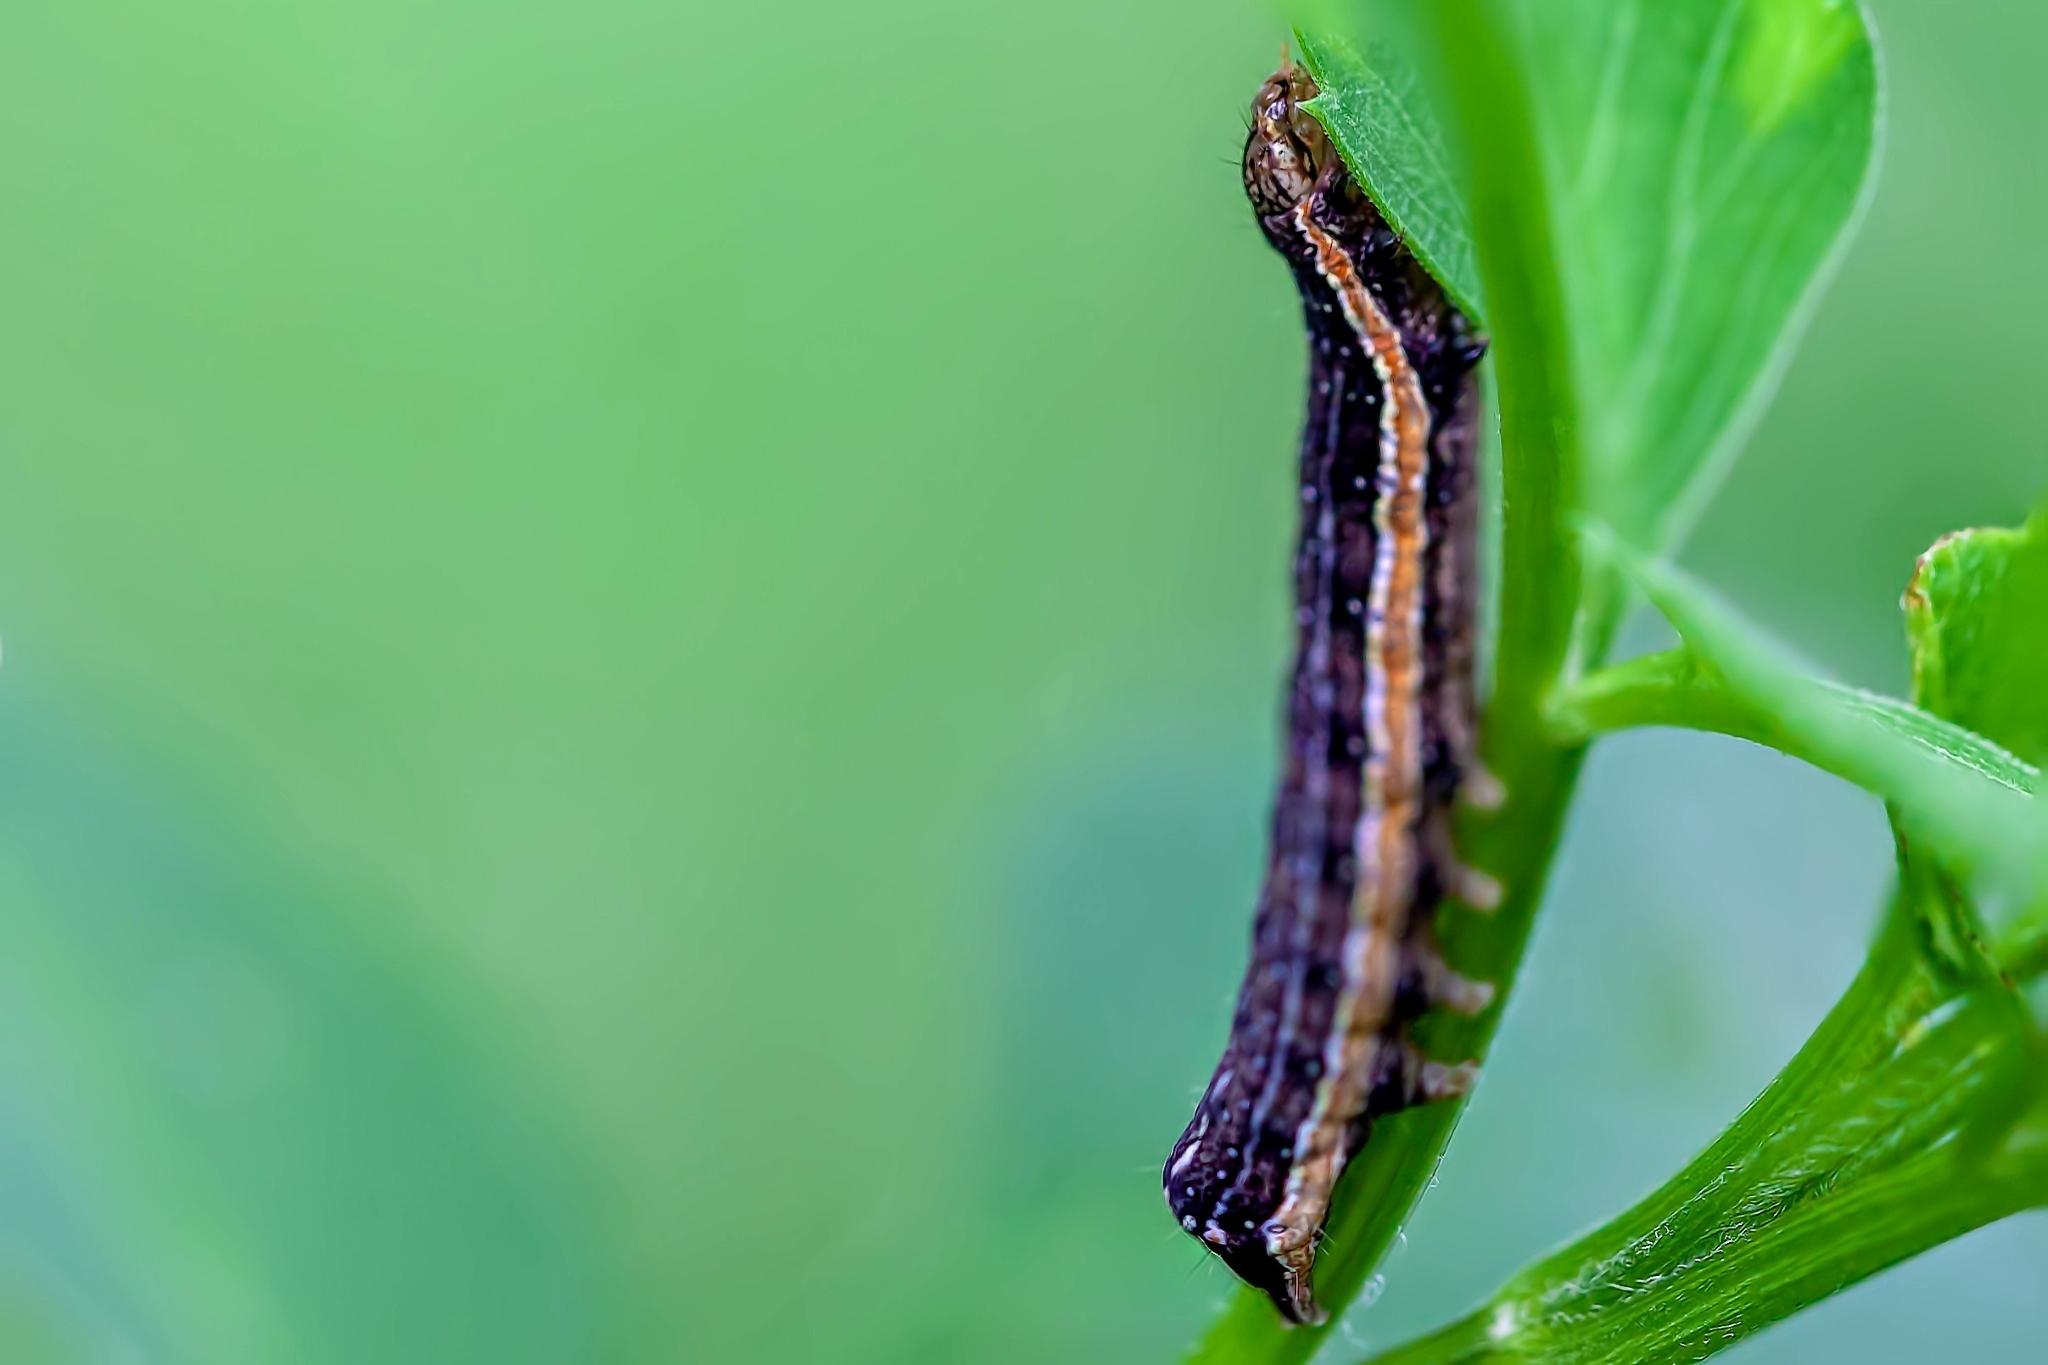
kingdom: Animalia
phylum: Arthropoda
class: Insecta
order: Lepidoptera
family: Noctuidae
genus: Condica
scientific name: Condica mobilis
